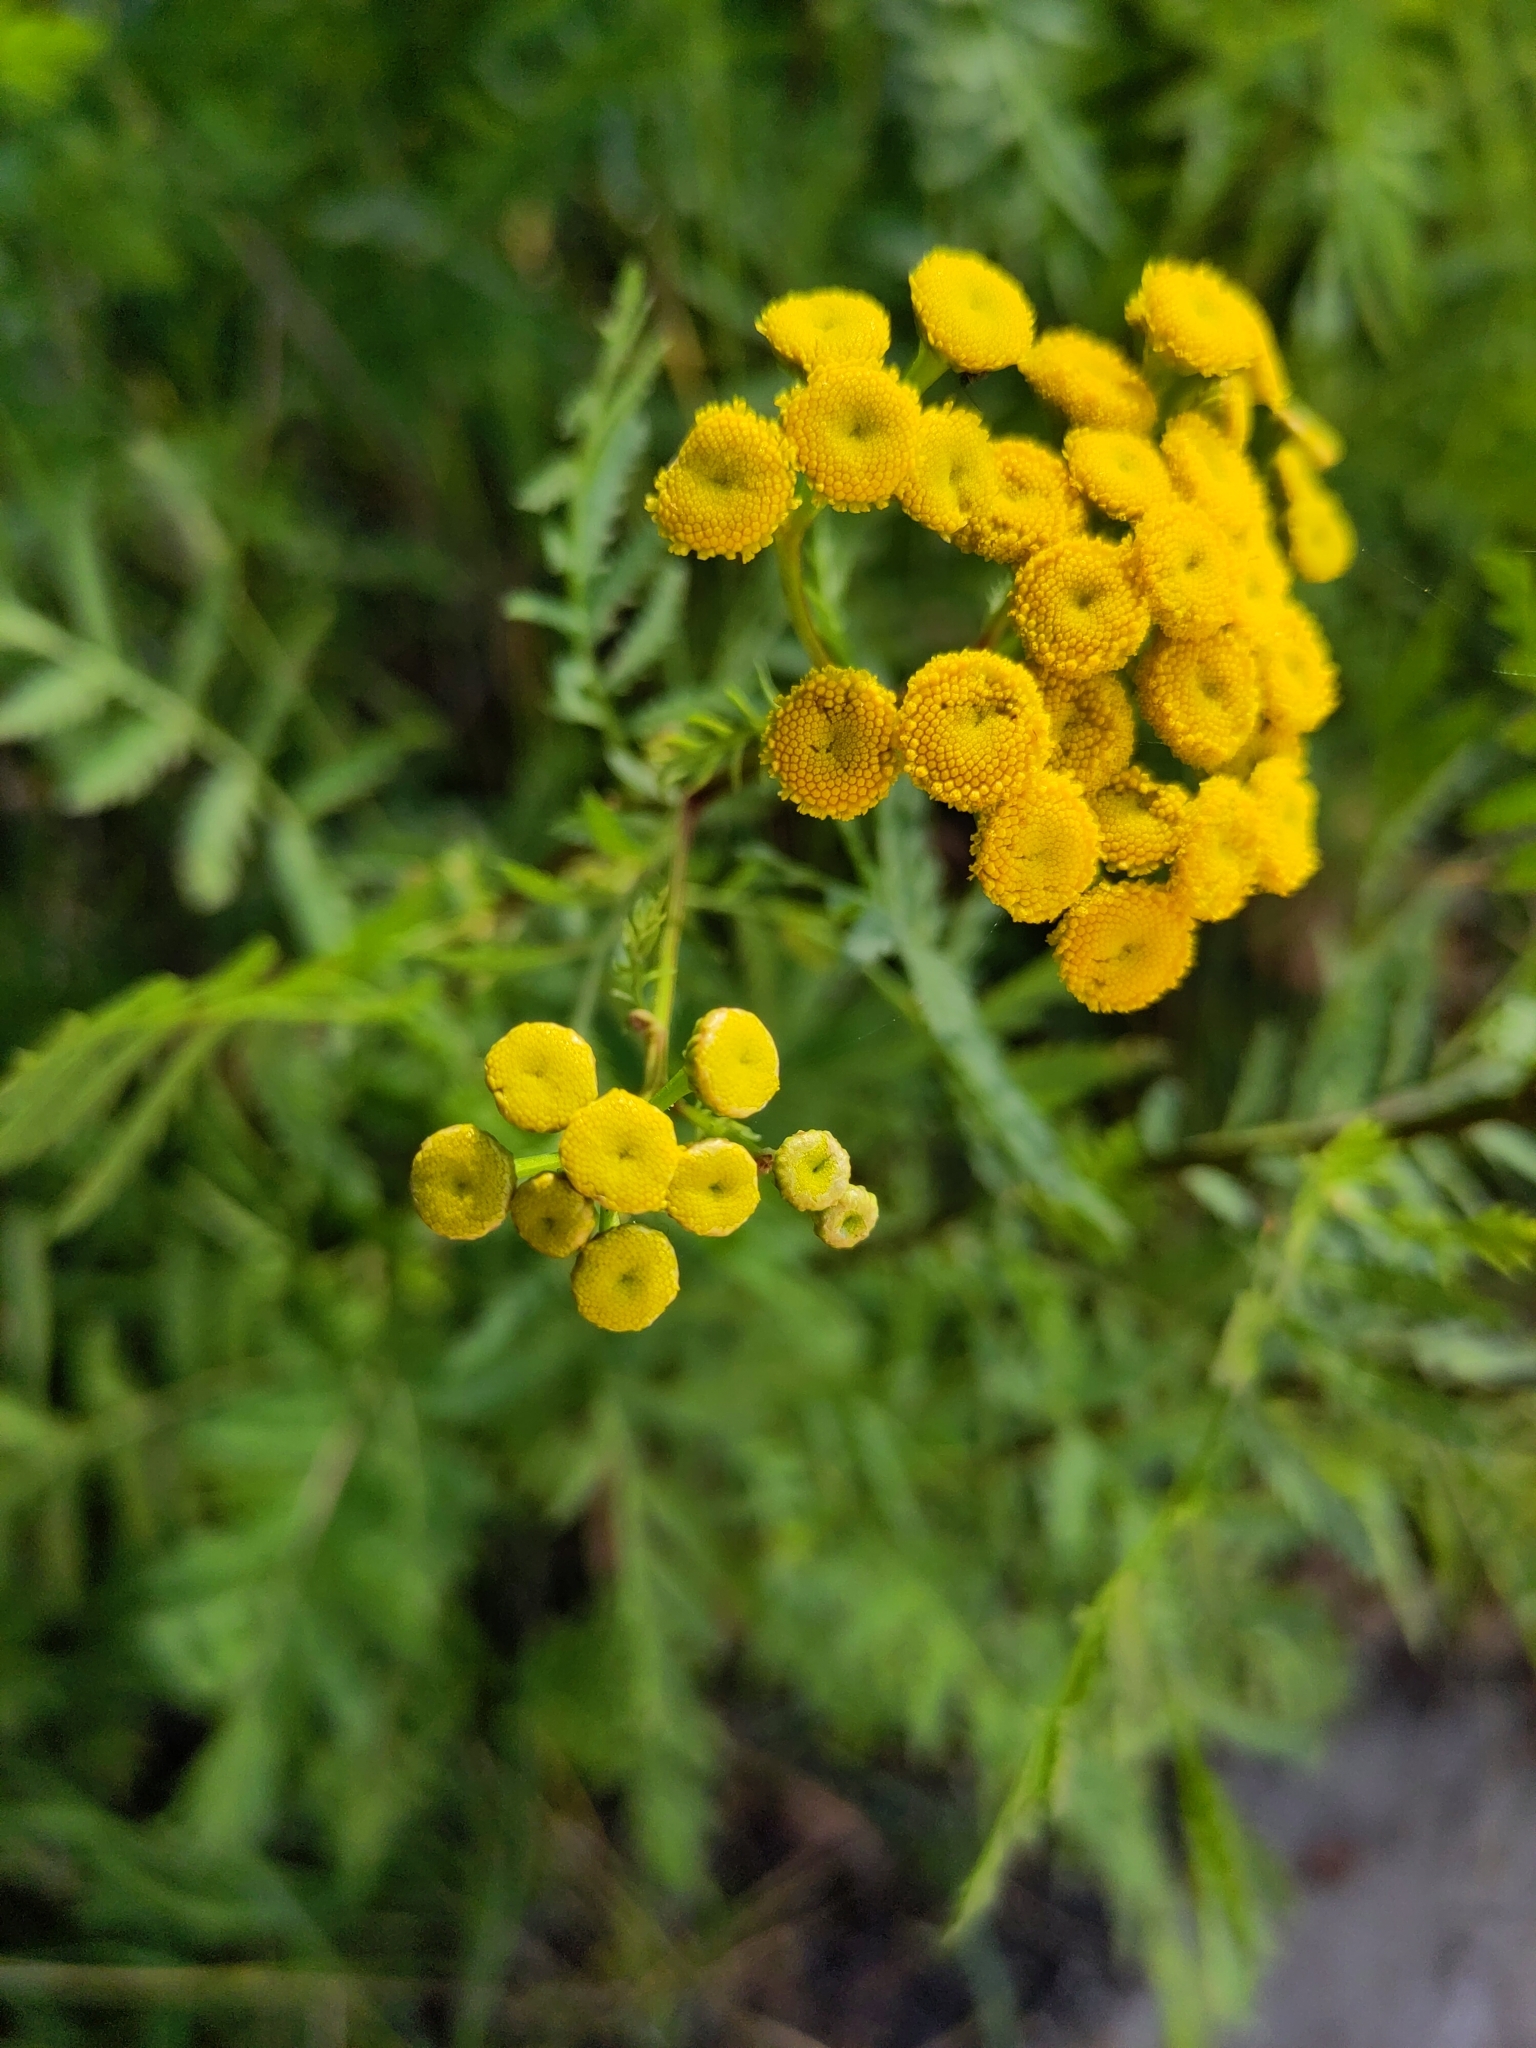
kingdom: Plantae
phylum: Tracheophyta
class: Magnoliopsida
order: Asterales
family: Asteraceae
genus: Tanacetum
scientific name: Tanacetum vulgare
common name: Common tansy
